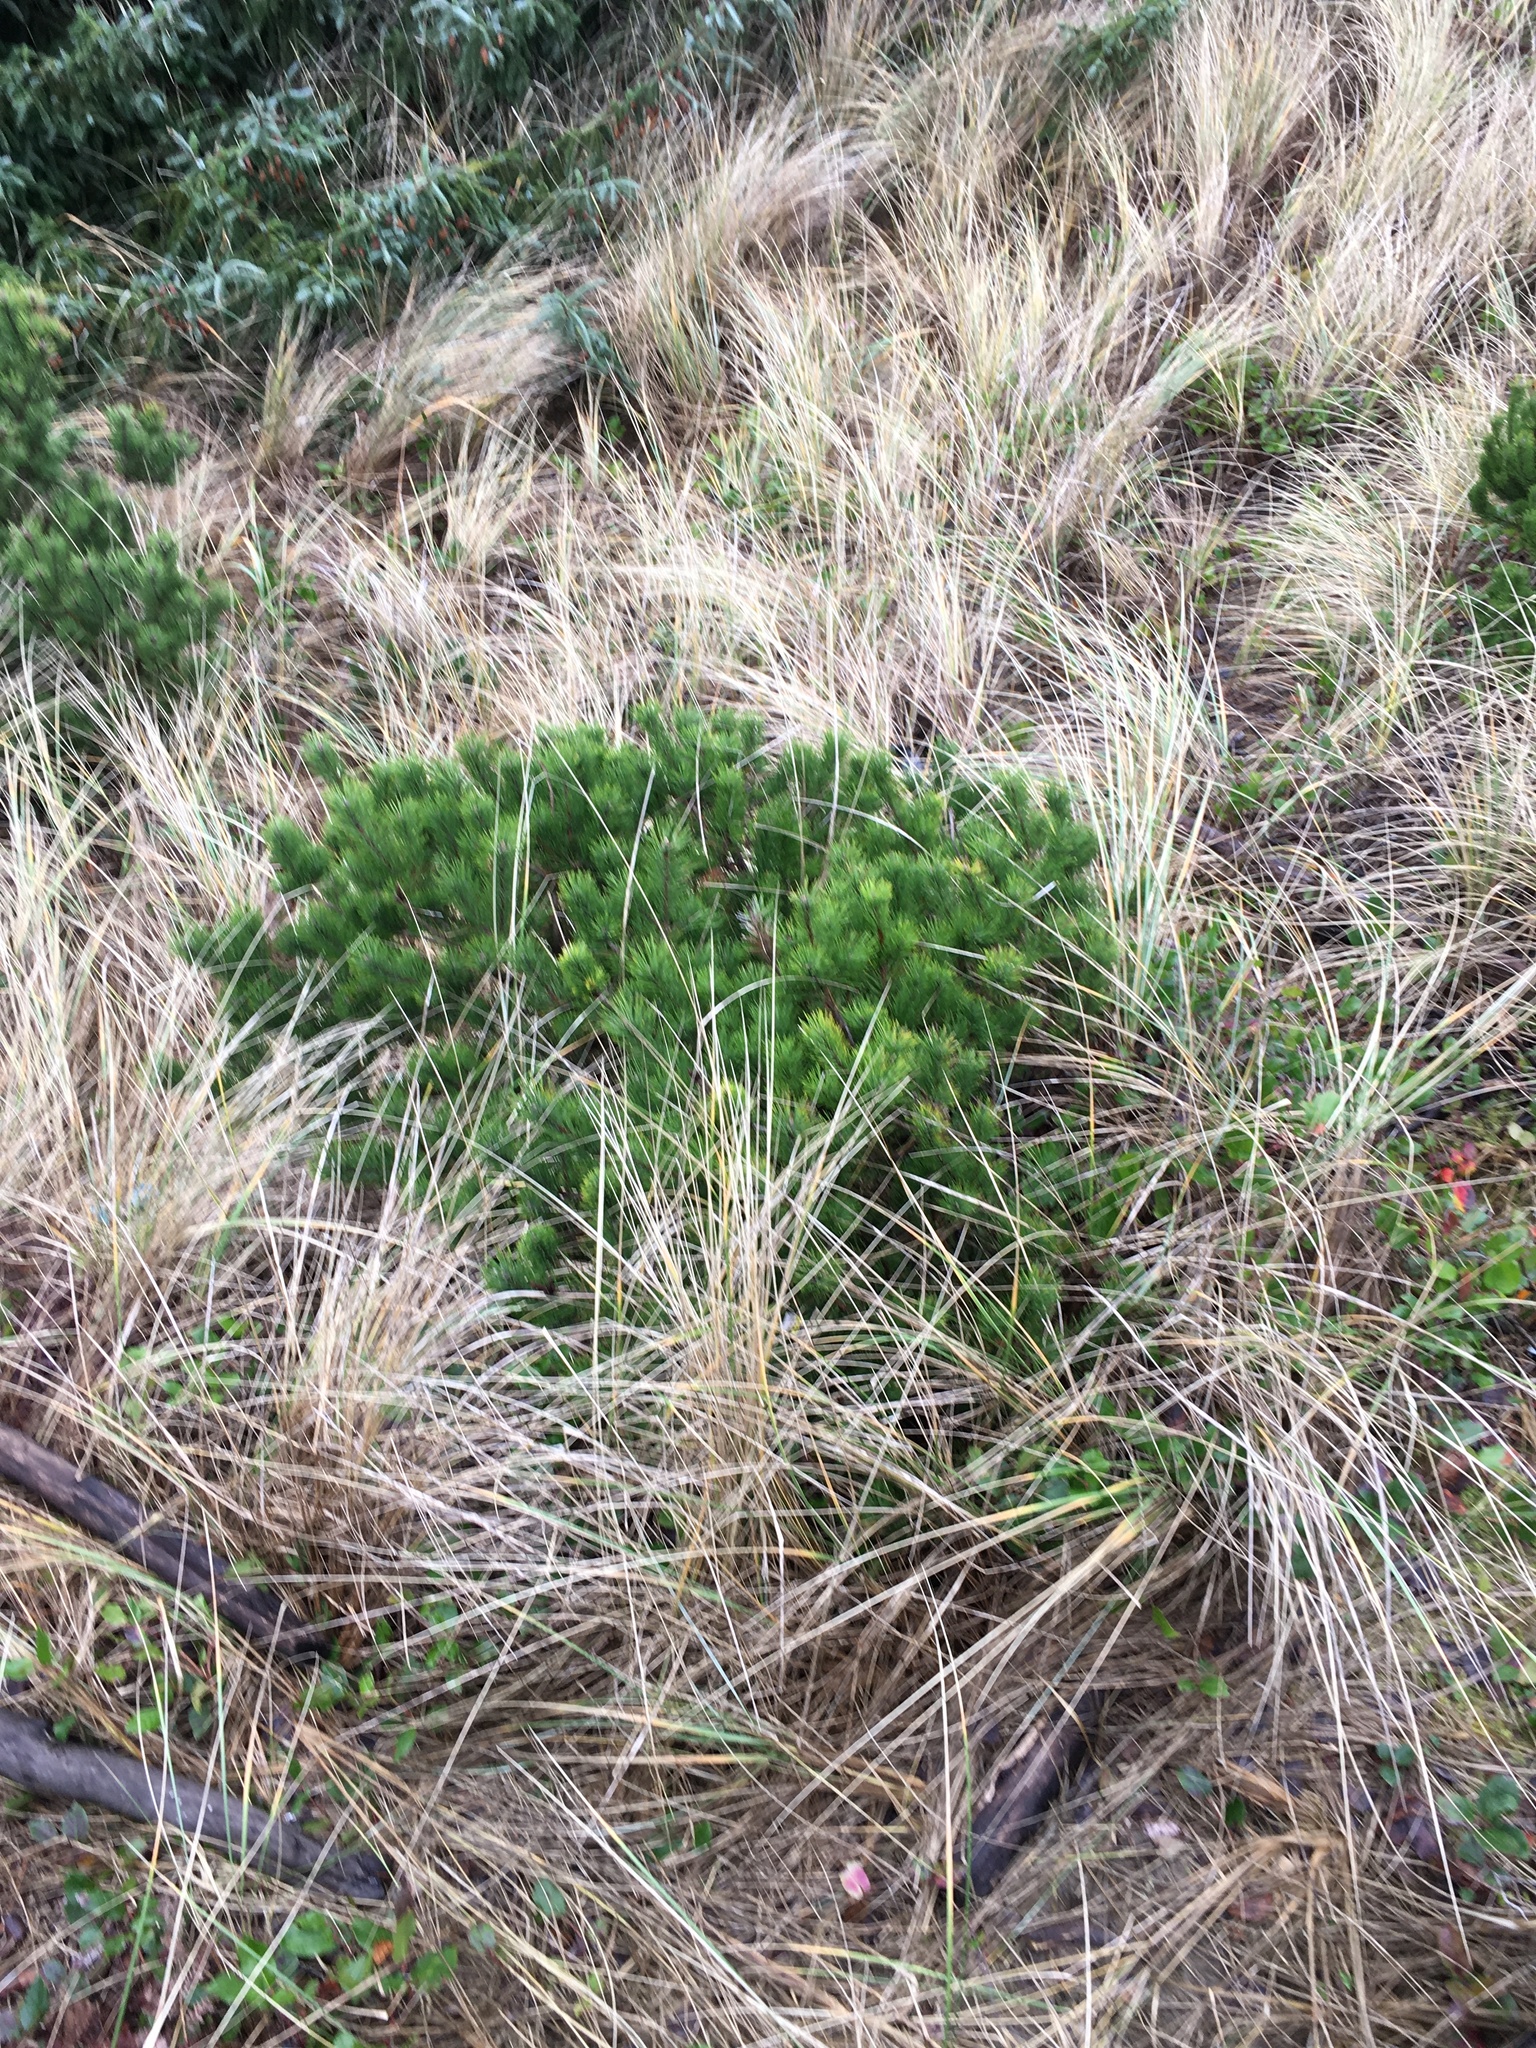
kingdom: Plantae
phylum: Tracheophyta
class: Pinopsida
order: Pinales
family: Pinaceae
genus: Pinus
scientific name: Pinus contorta
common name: Lodgepole pine
